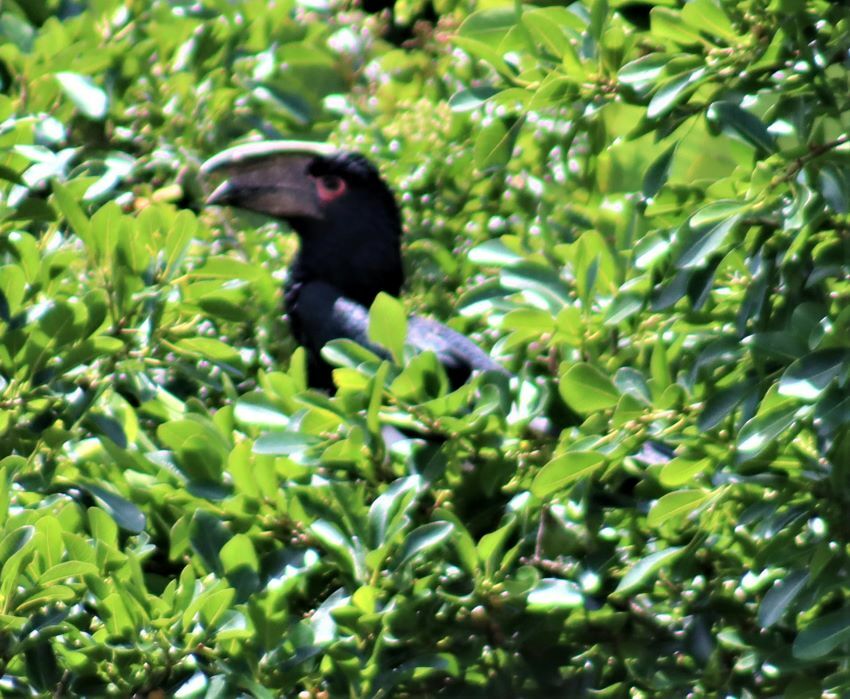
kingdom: Animalia
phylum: Chordata
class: Aves
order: Bucerotiformes
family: Bucerotidae
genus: Bycanistes
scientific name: Bycanistes bucinator
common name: Trumpeter hornbill
